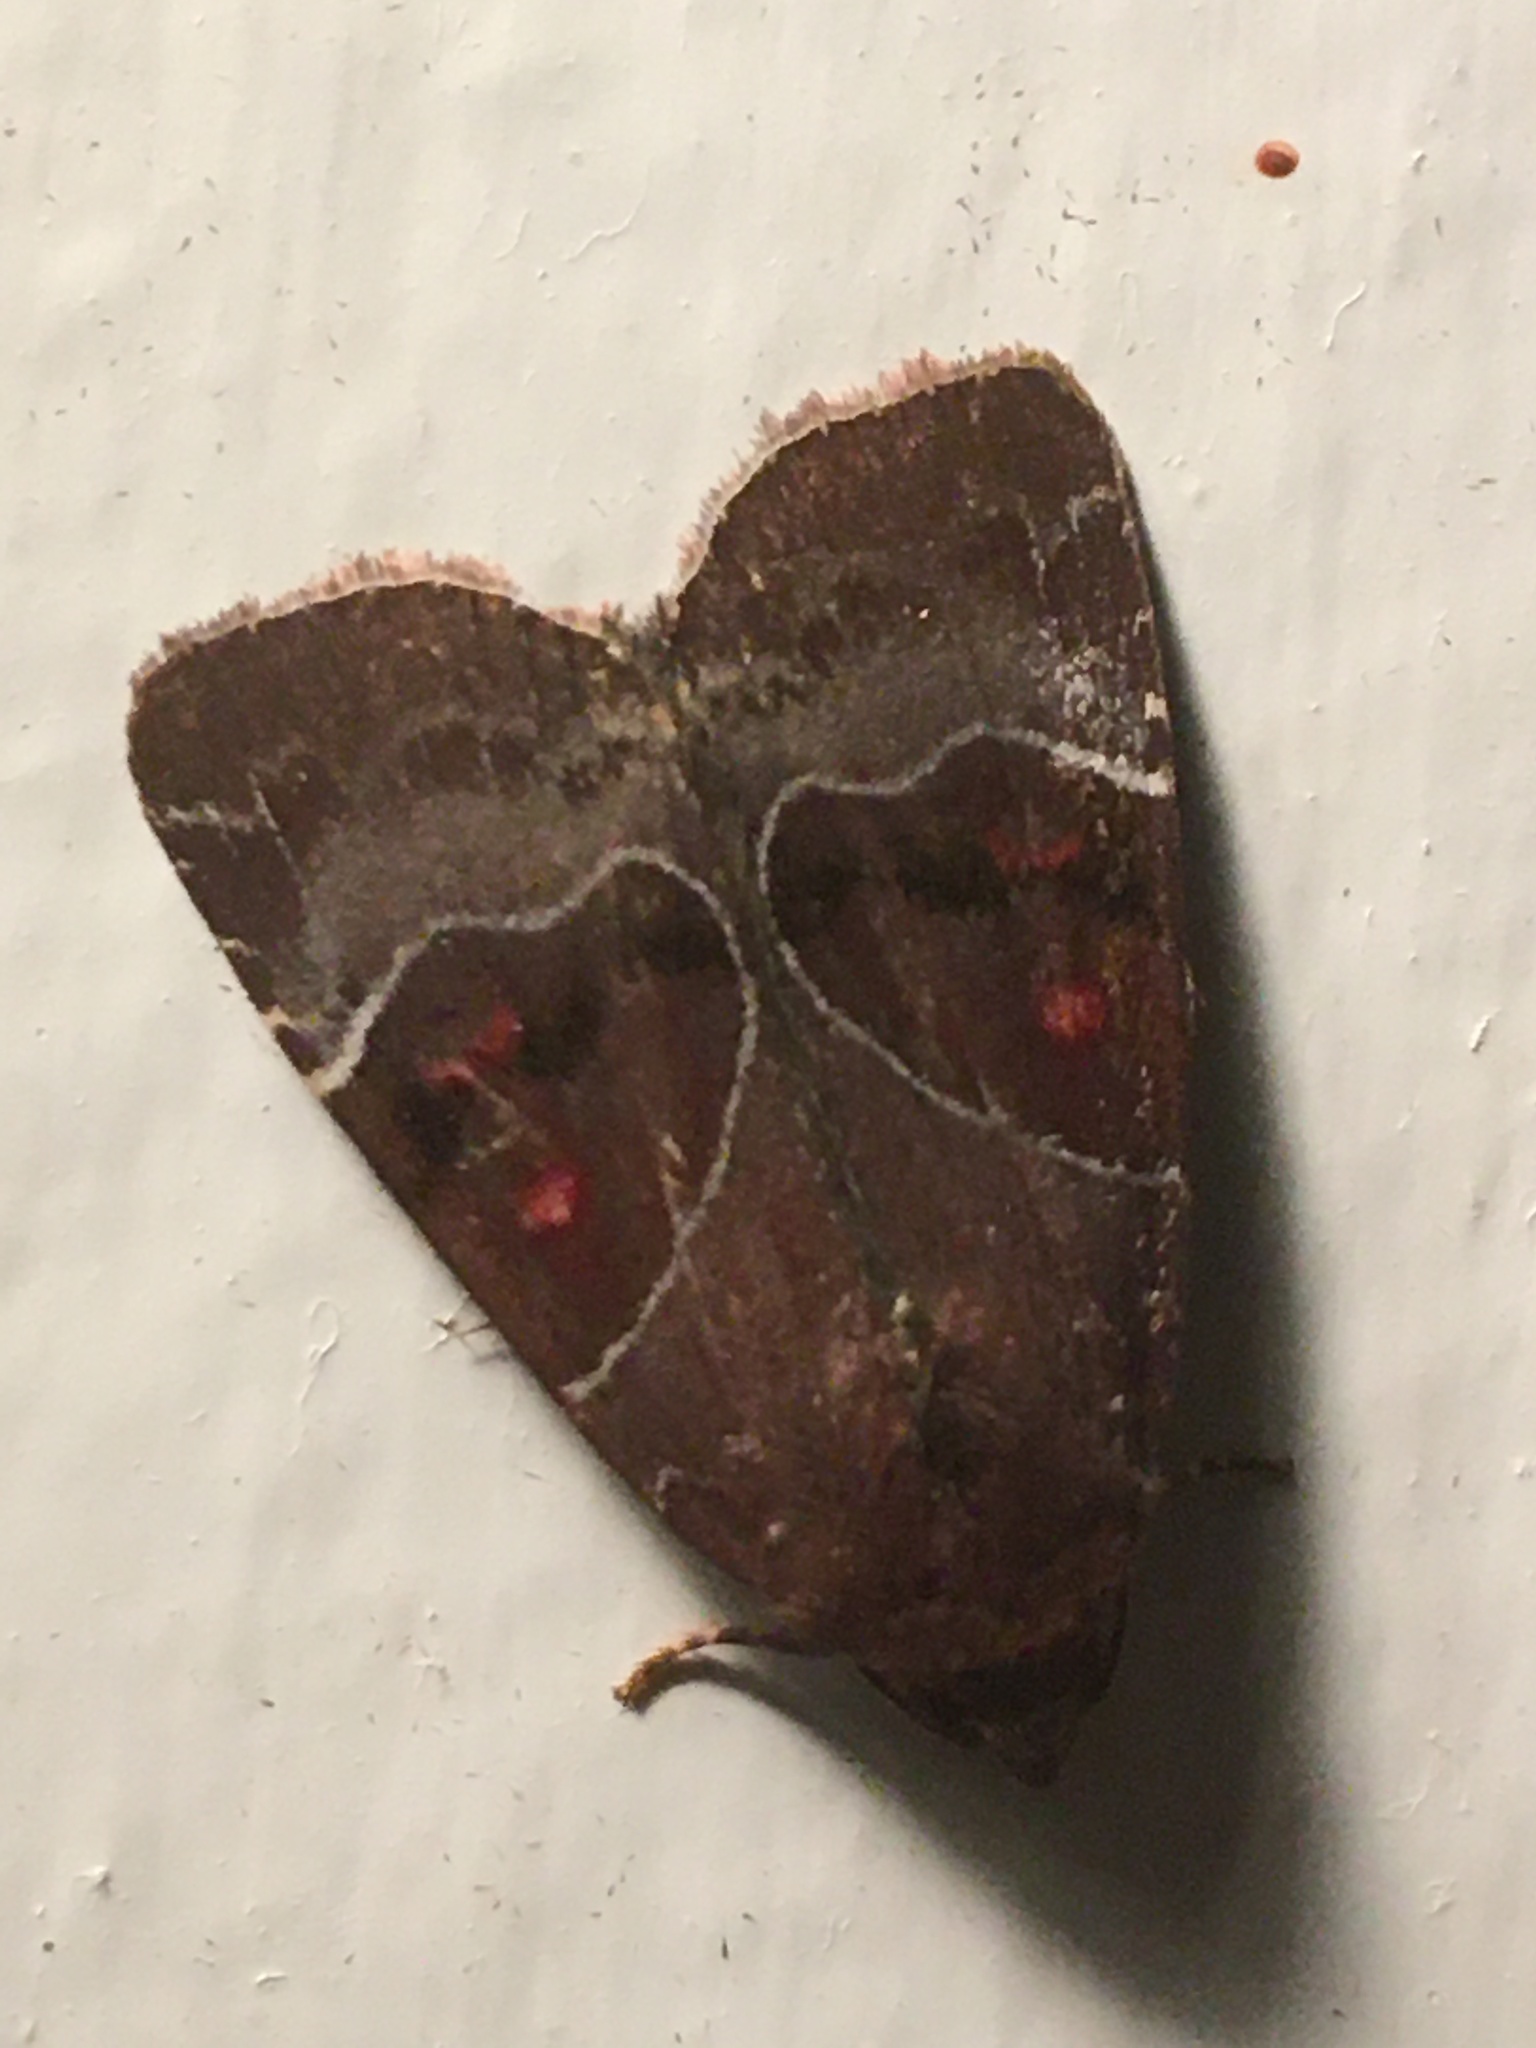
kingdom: Animalia
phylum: Arthropoda
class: Insecta
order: Lepidoptera
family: Noctuidae
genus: Hampsonodes
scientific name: Hampsonodes mastoides
